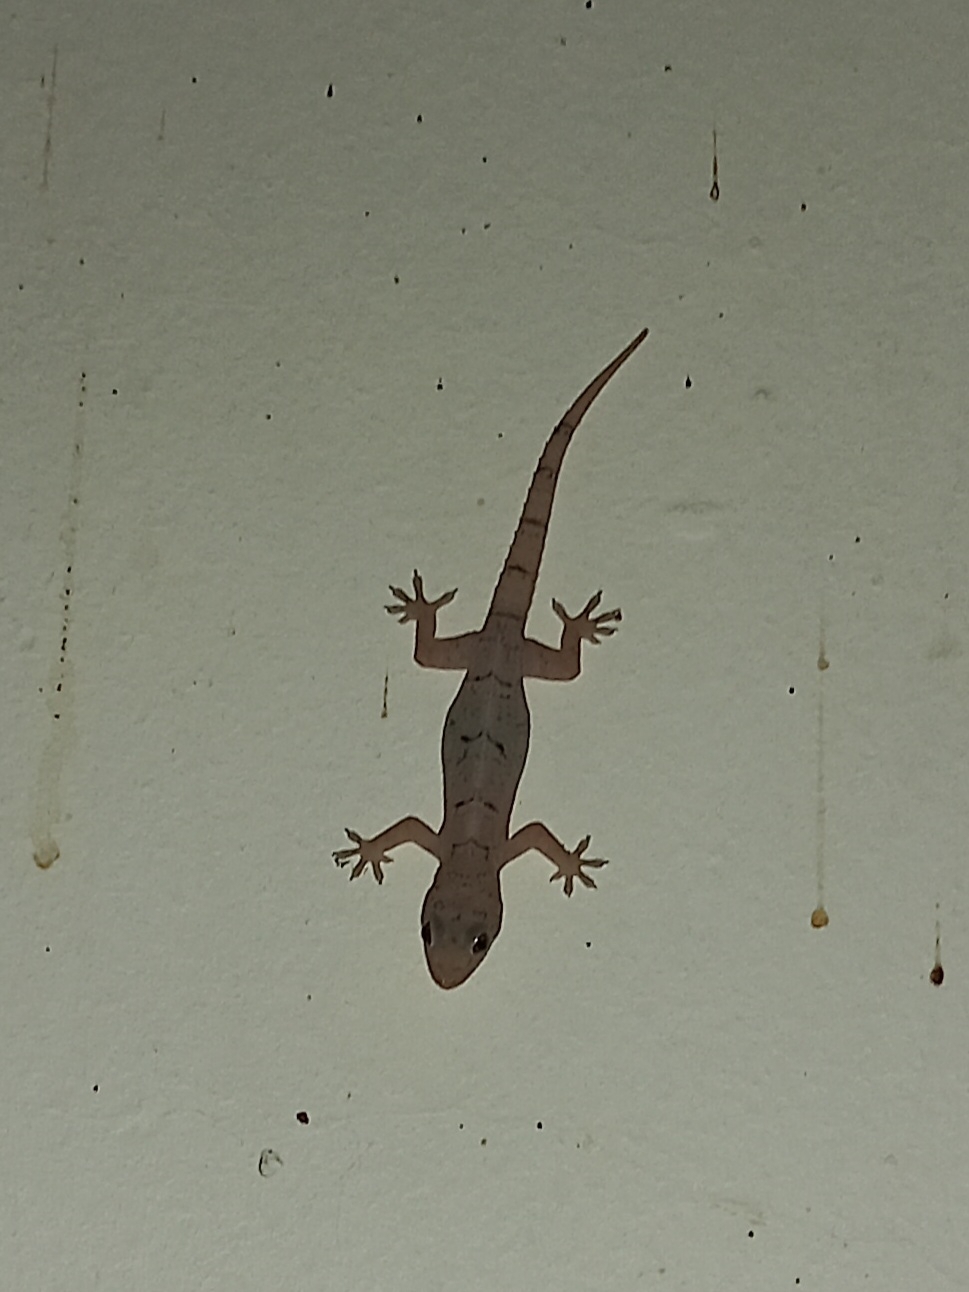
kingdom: Animalia
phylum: Chordata
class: Squamata
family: Gekkonidae
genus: Hemidactylus
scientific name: Hemidactylus mabouia
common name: House gecko
